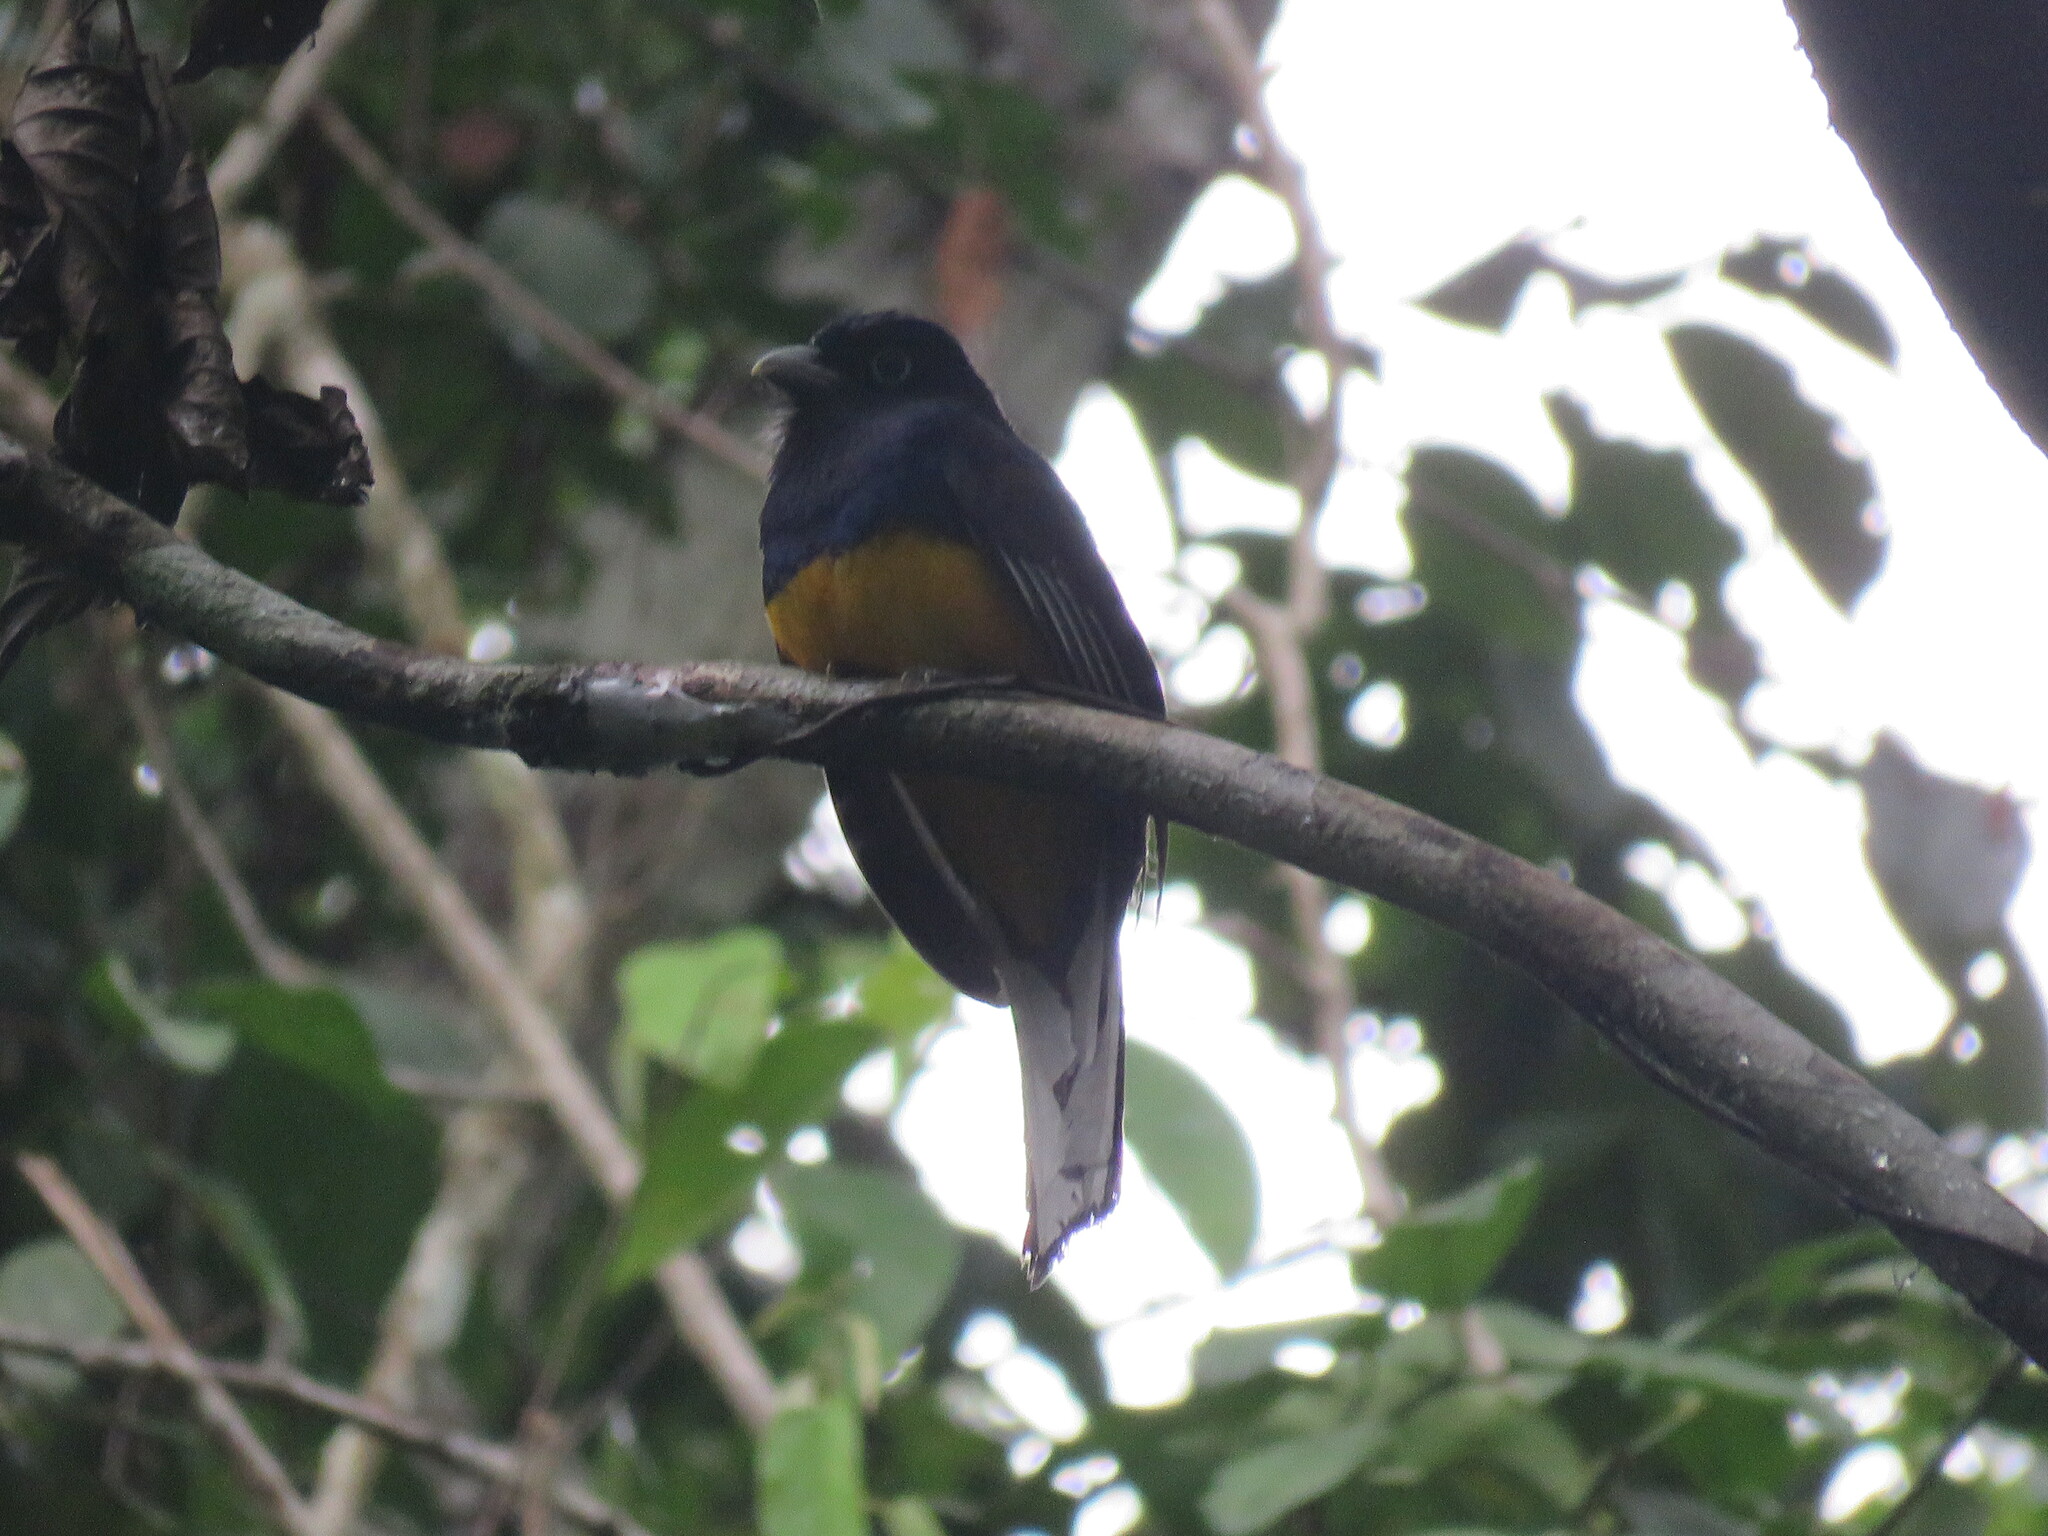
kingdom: Animalia
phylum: Chordata
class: Aves
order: Trogoniformes
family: Trogonidae
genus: Trogon
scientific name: Trogon viridis
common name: Green-backed trogon
